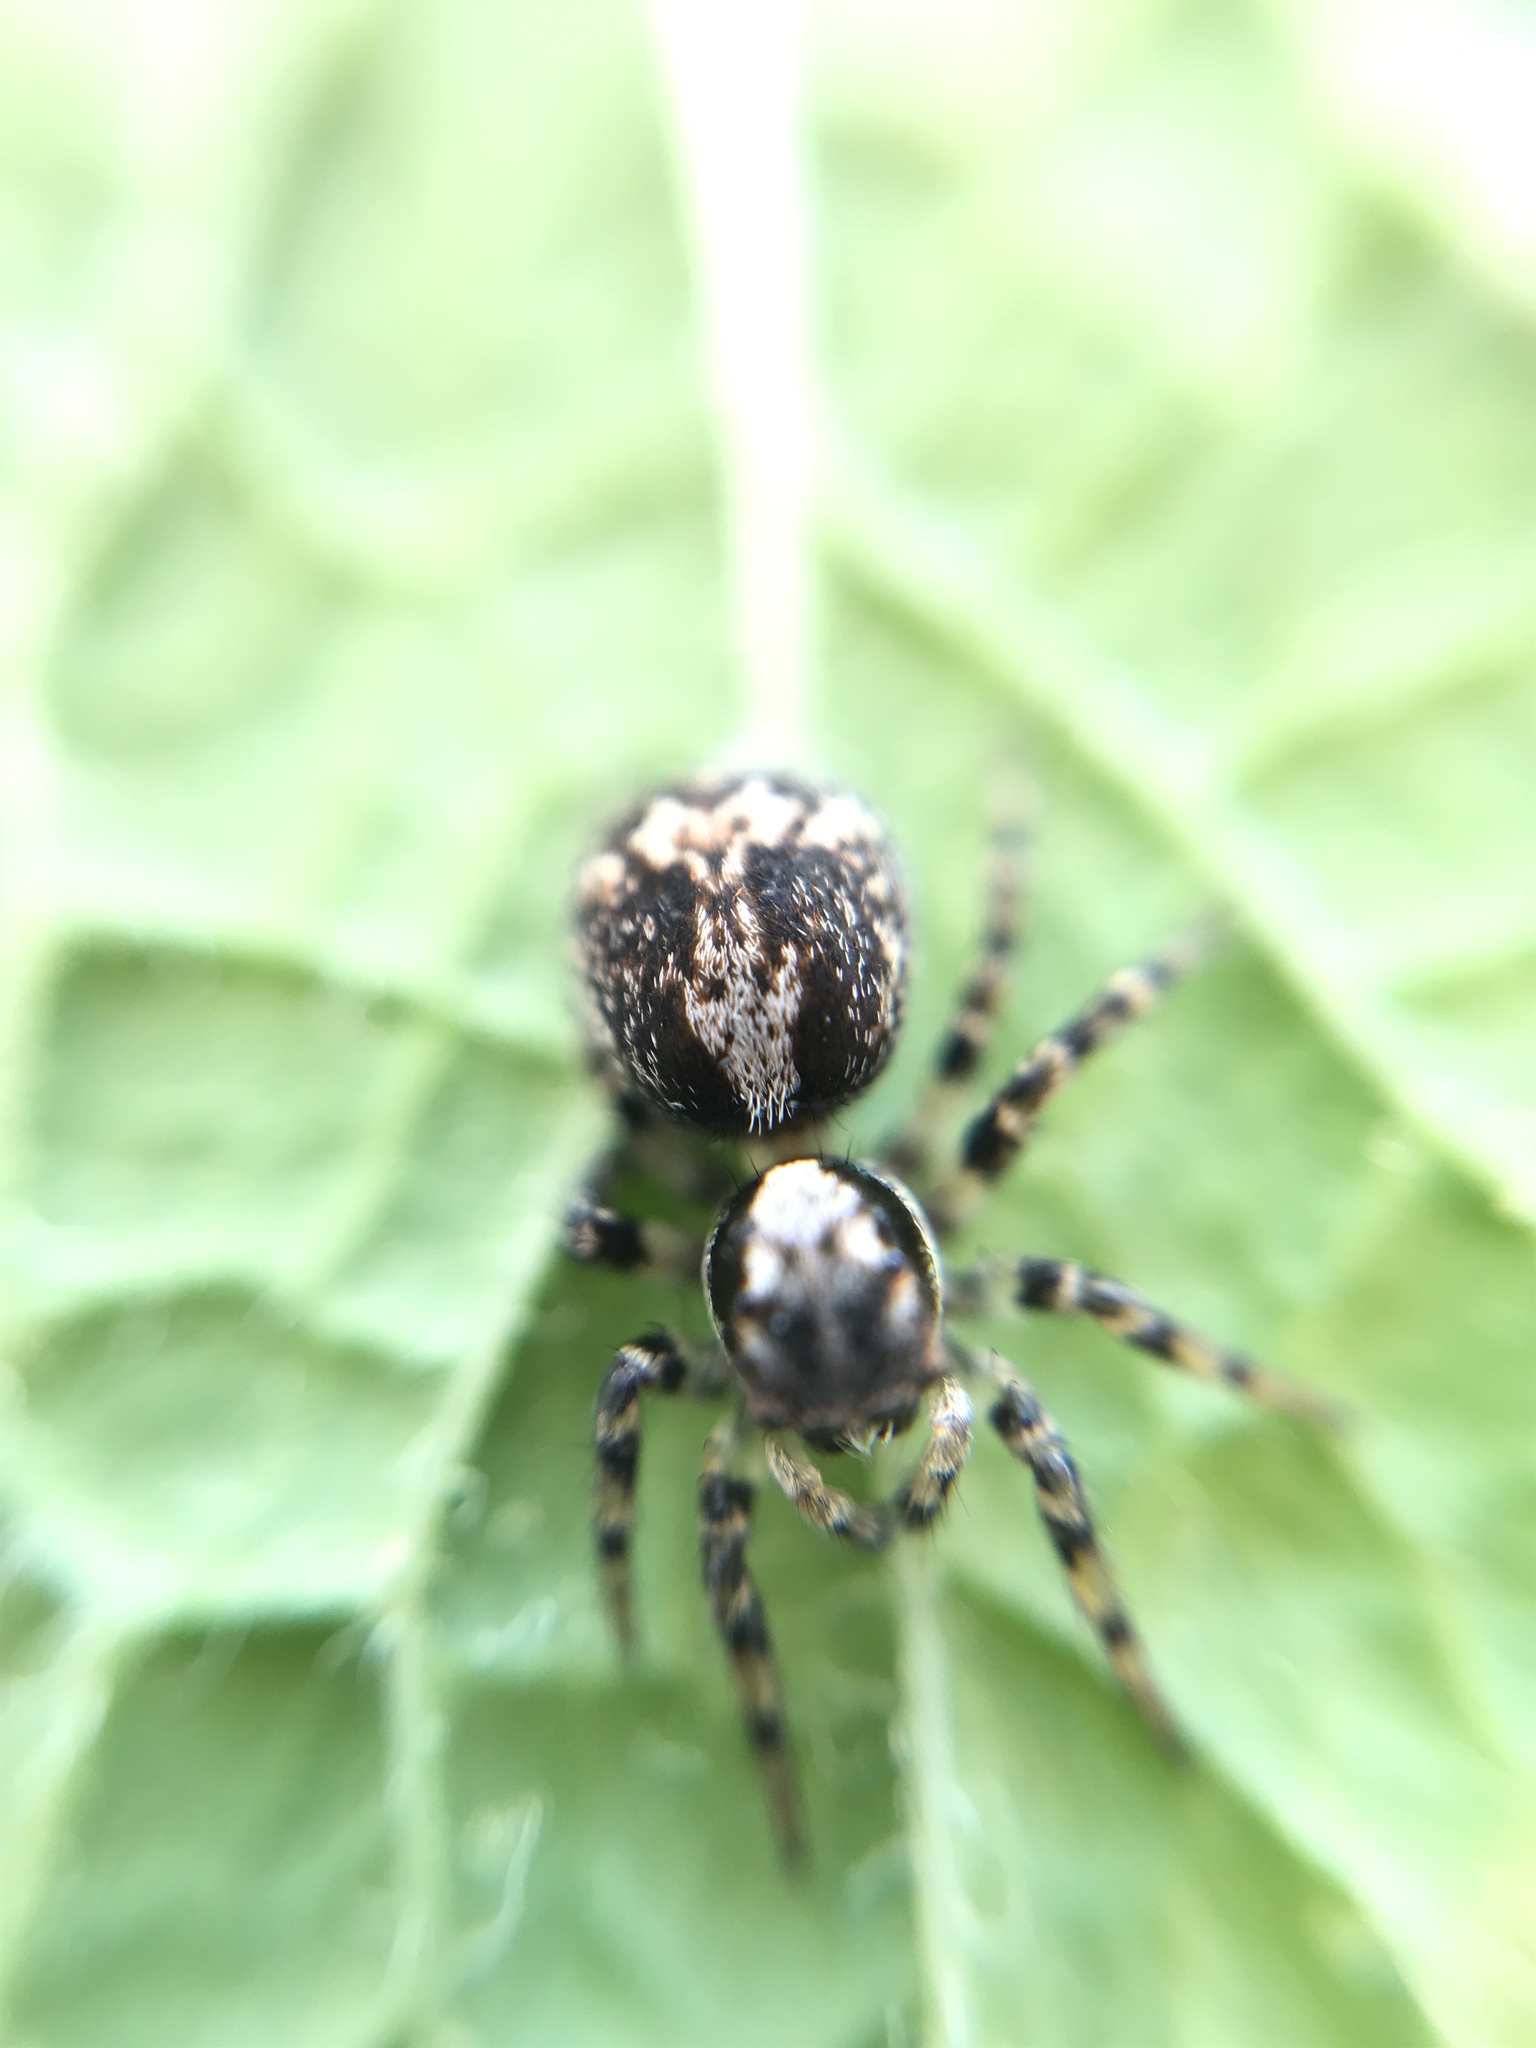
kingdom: Animalia
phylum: Arthropoda
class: Arachnida
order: Araneae
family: Salticidae
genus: Naphrys
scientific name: Naphrys pulex
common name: Flea jumping spider
